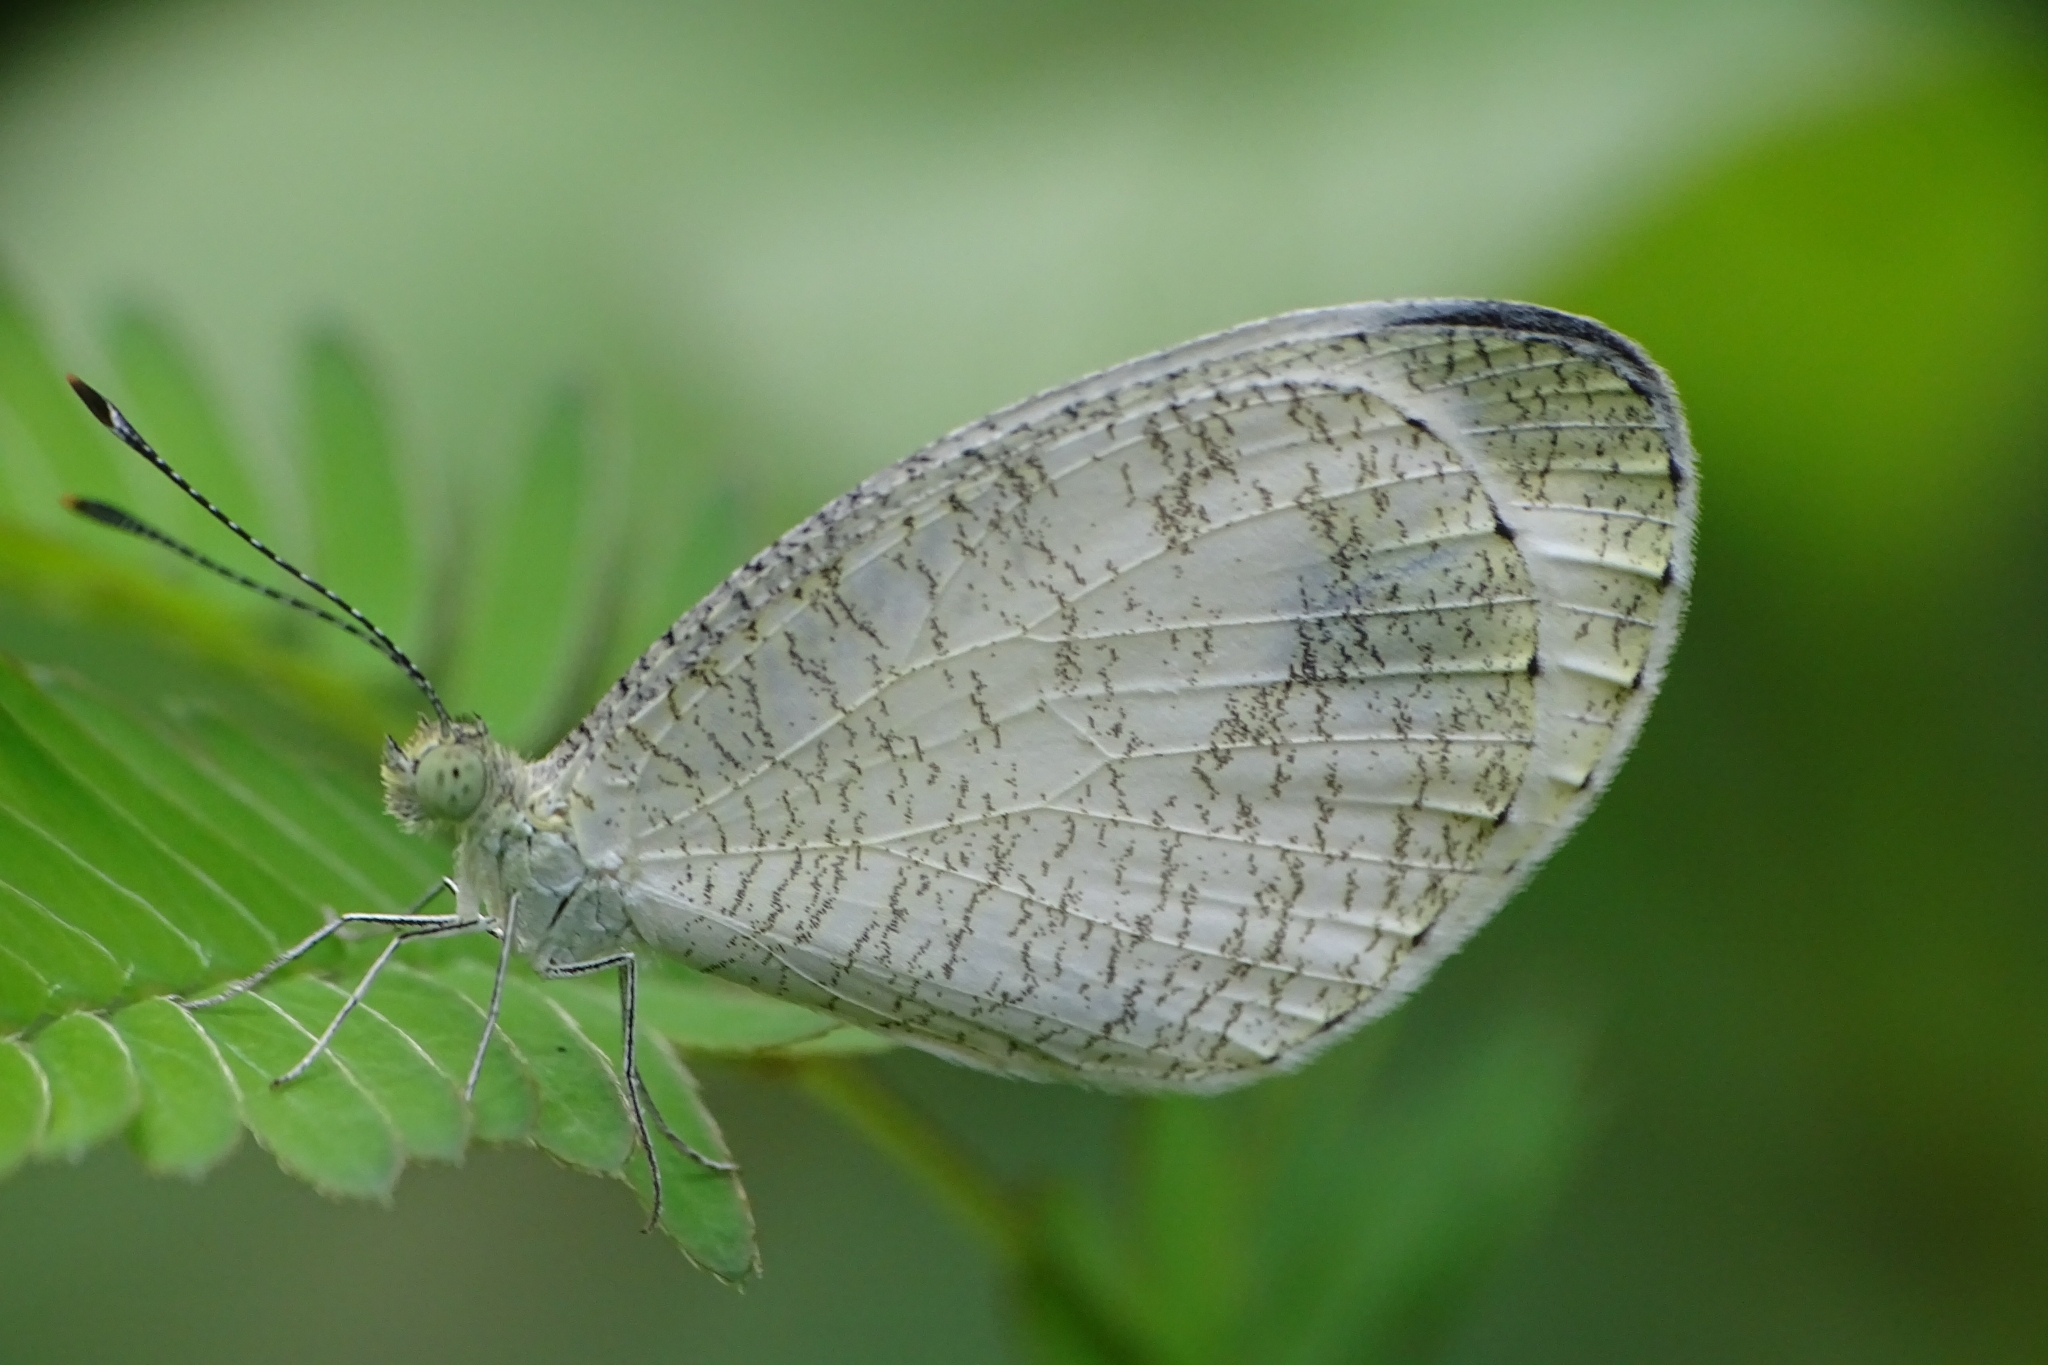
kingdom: Animalia
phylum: Arthropoda
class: Insecta
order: Lepidoptera
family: Pieridae
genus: Leptosia
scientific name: Leptosia nina
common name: Psyche
